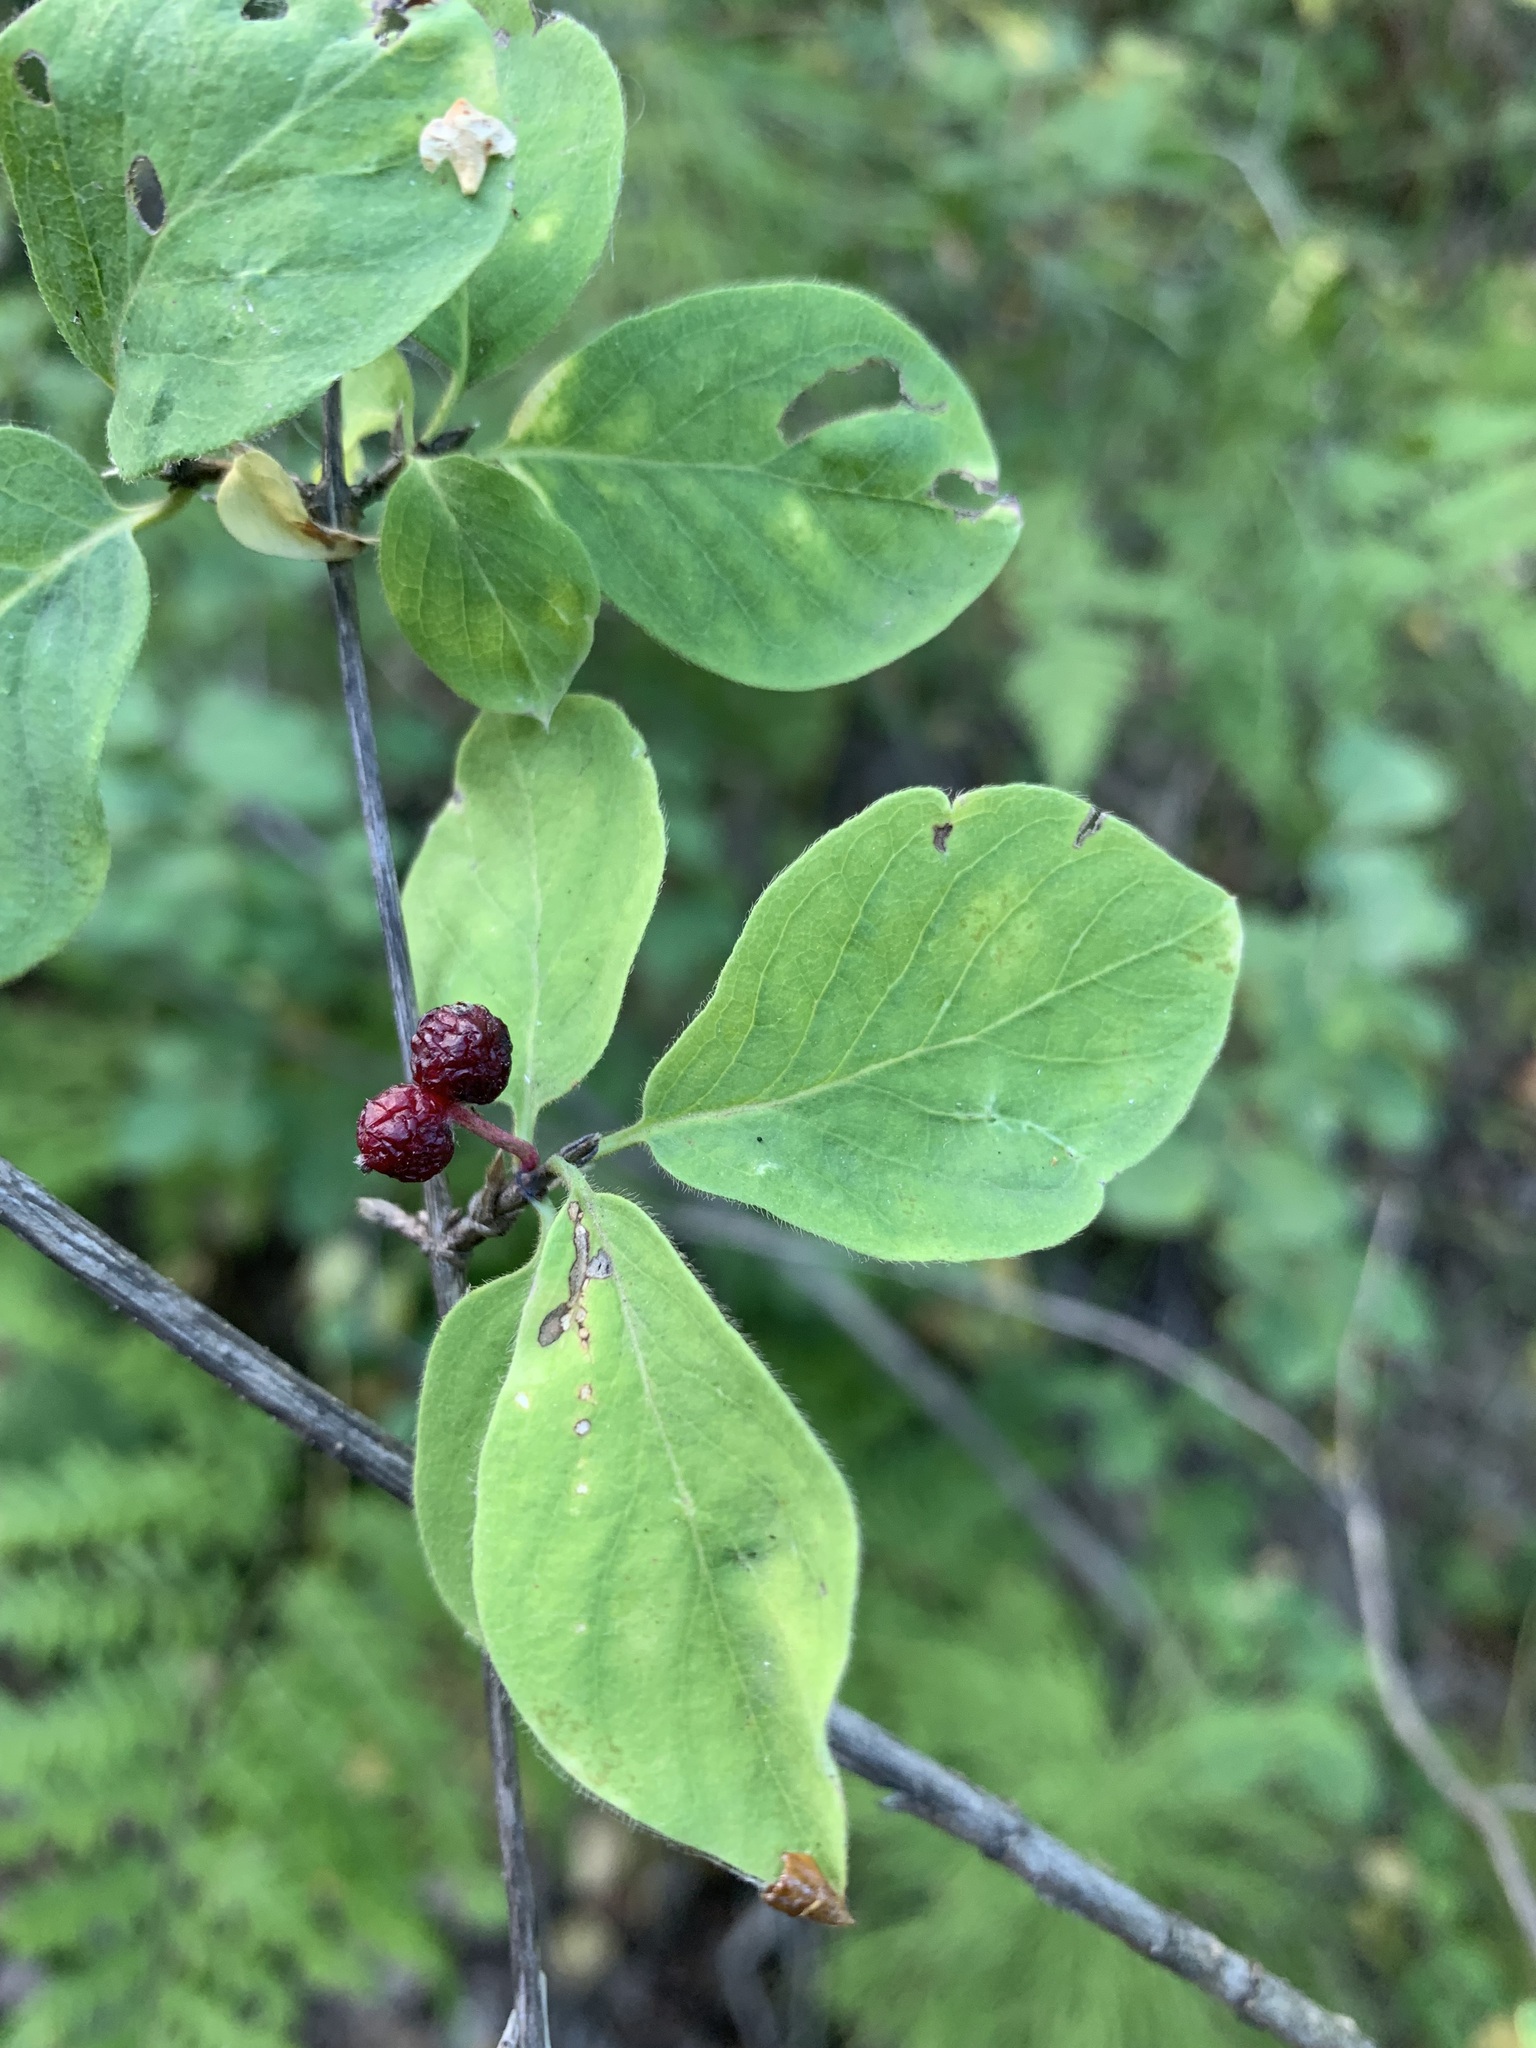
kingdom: Plantae
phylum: Tracheophyta
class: Magnoliopsida
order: Dipsacales
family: Caprifoliaceae
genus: Lonicera
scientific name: Lonicera xylosteum
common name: Fly honeysuckle
